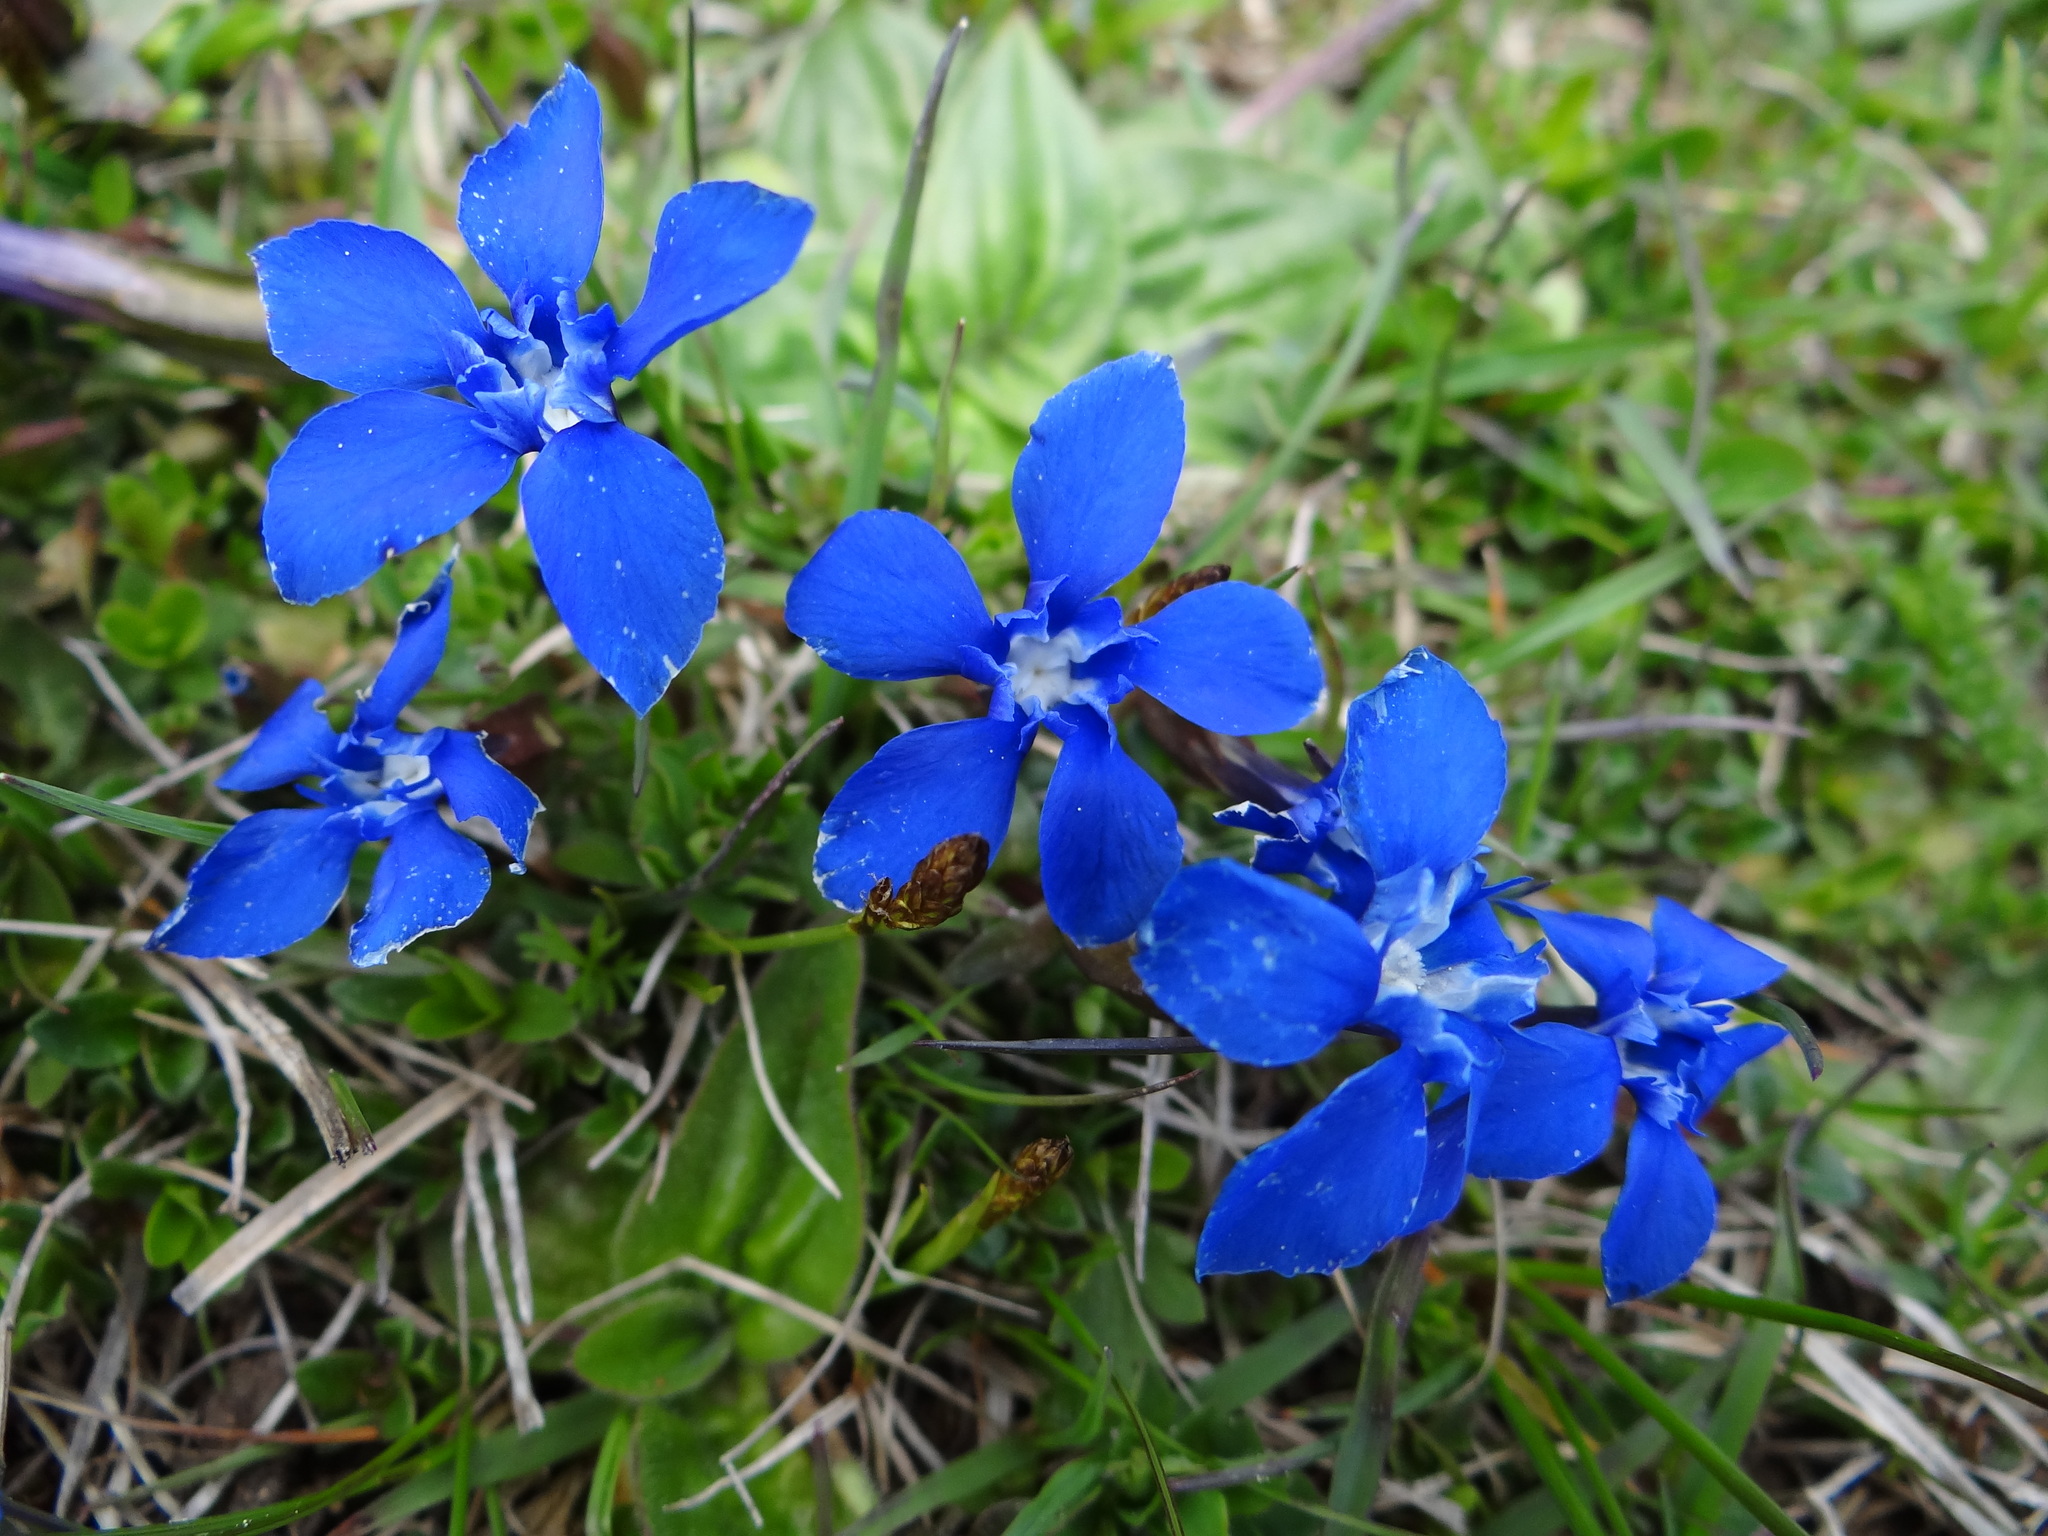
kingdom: Plantae
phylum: Tracheophyta
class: Magnoliopsida
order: Gentianales
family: Gentianaceae
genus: Gentiana
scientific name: Gentiana verna
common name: Spring gentian
